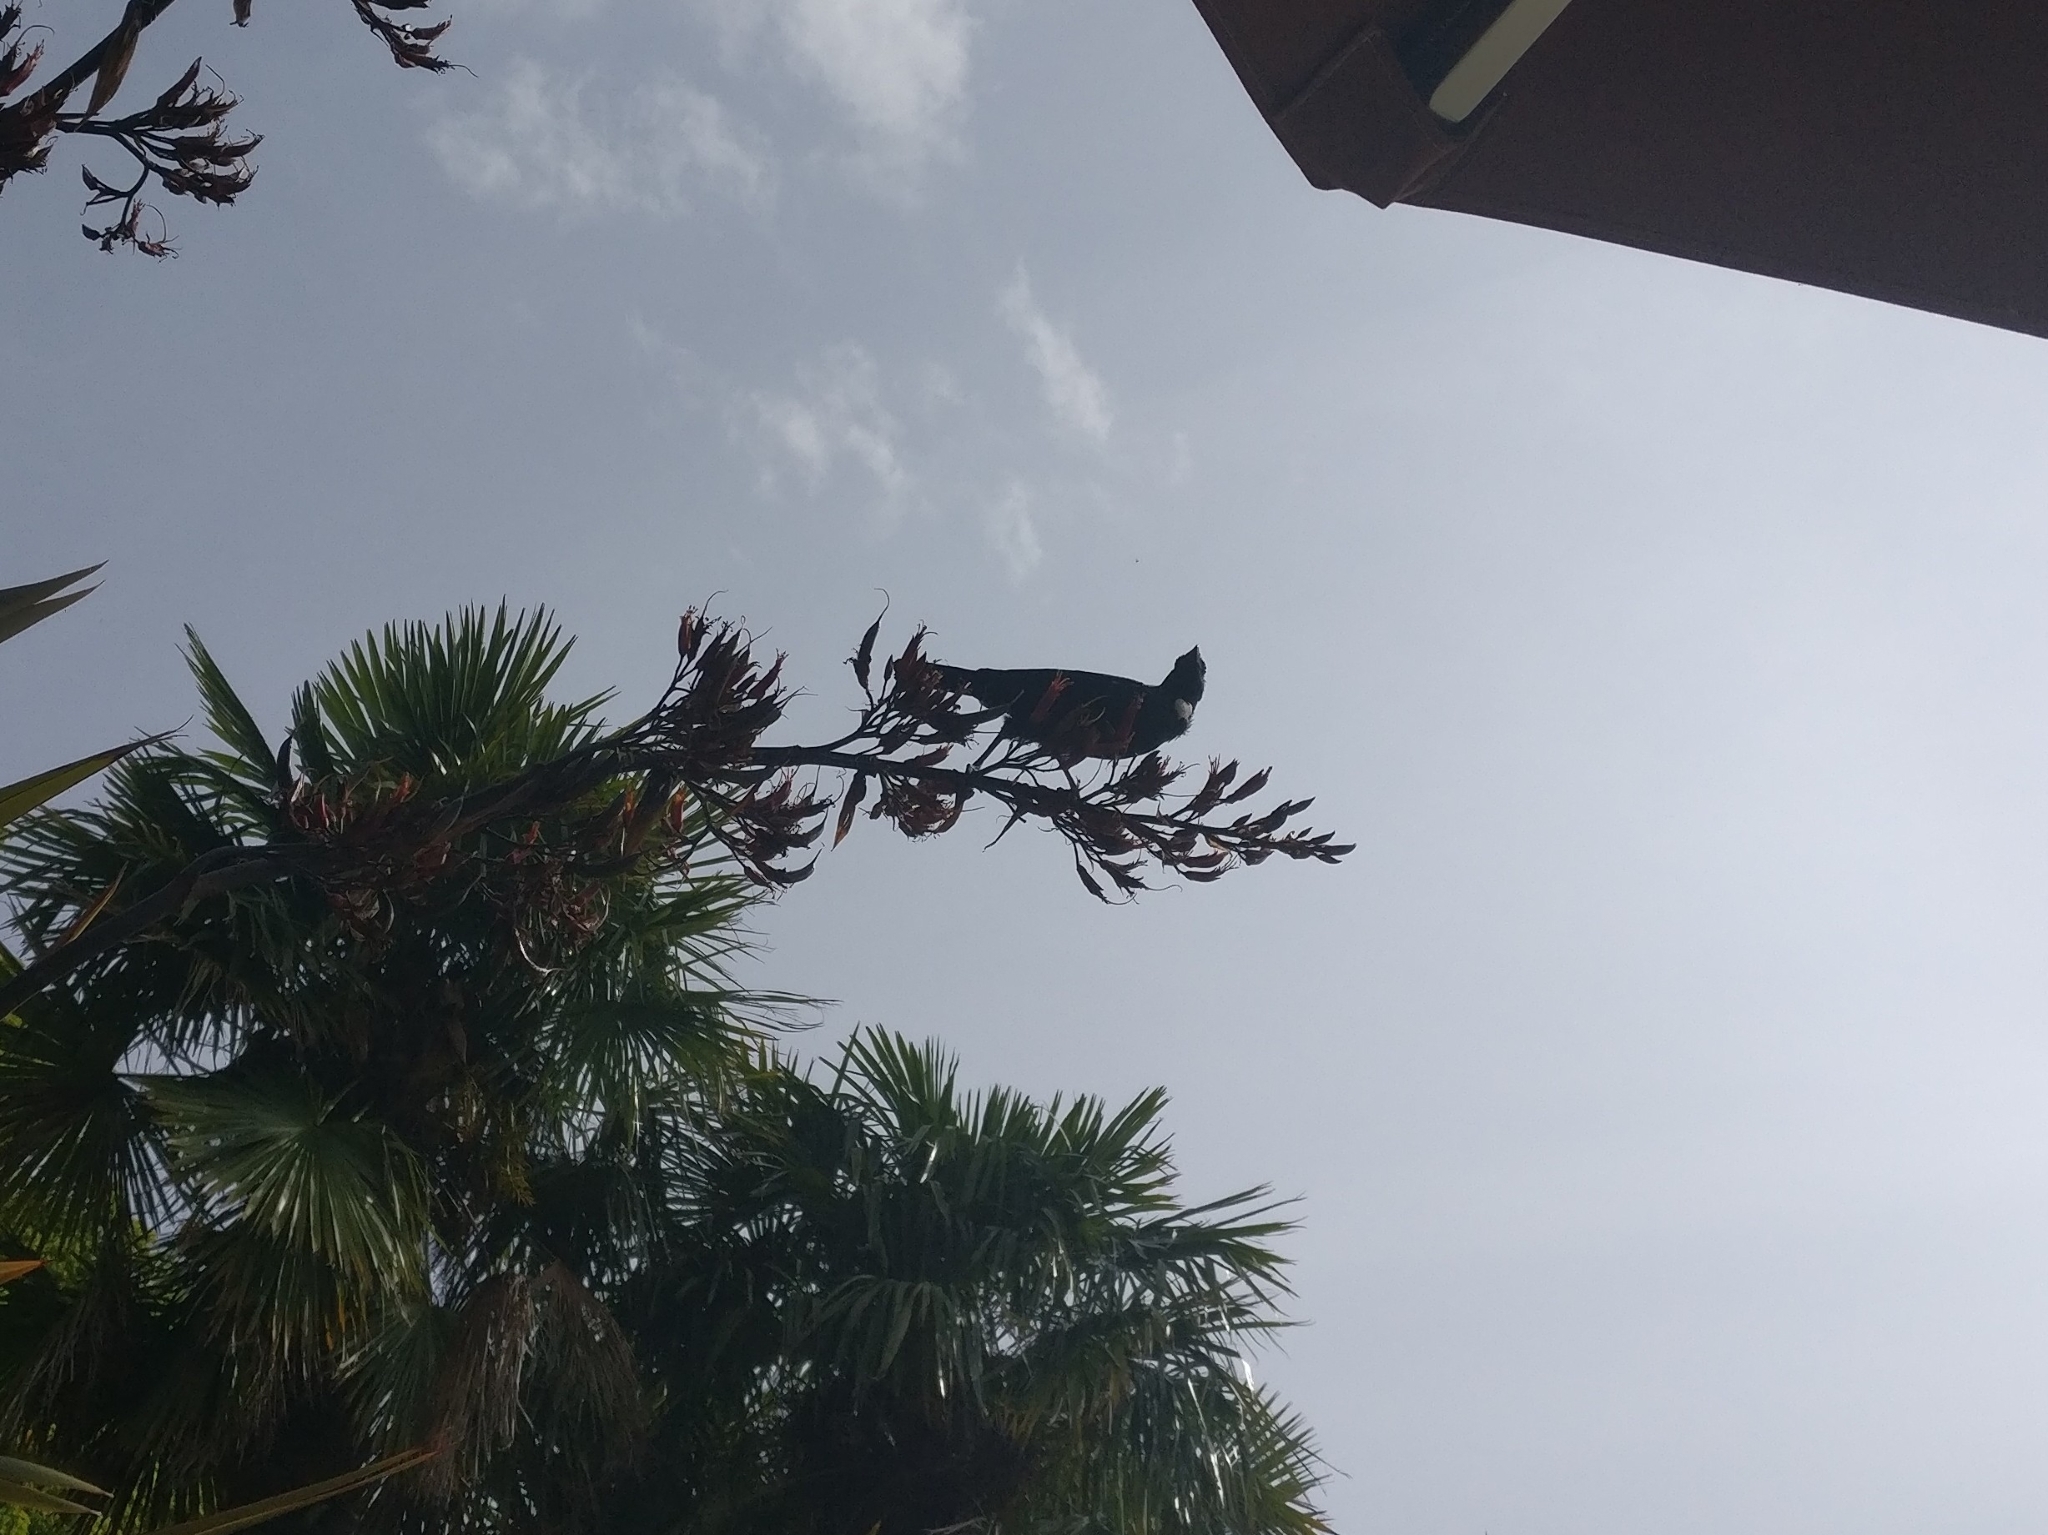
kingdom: Animalia
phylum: Chordata
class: Aves
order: Passeriformes
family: Meliphagidae
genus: Prosthemadera
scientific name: Prosthemadera novaeseelandiae
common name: Tui
